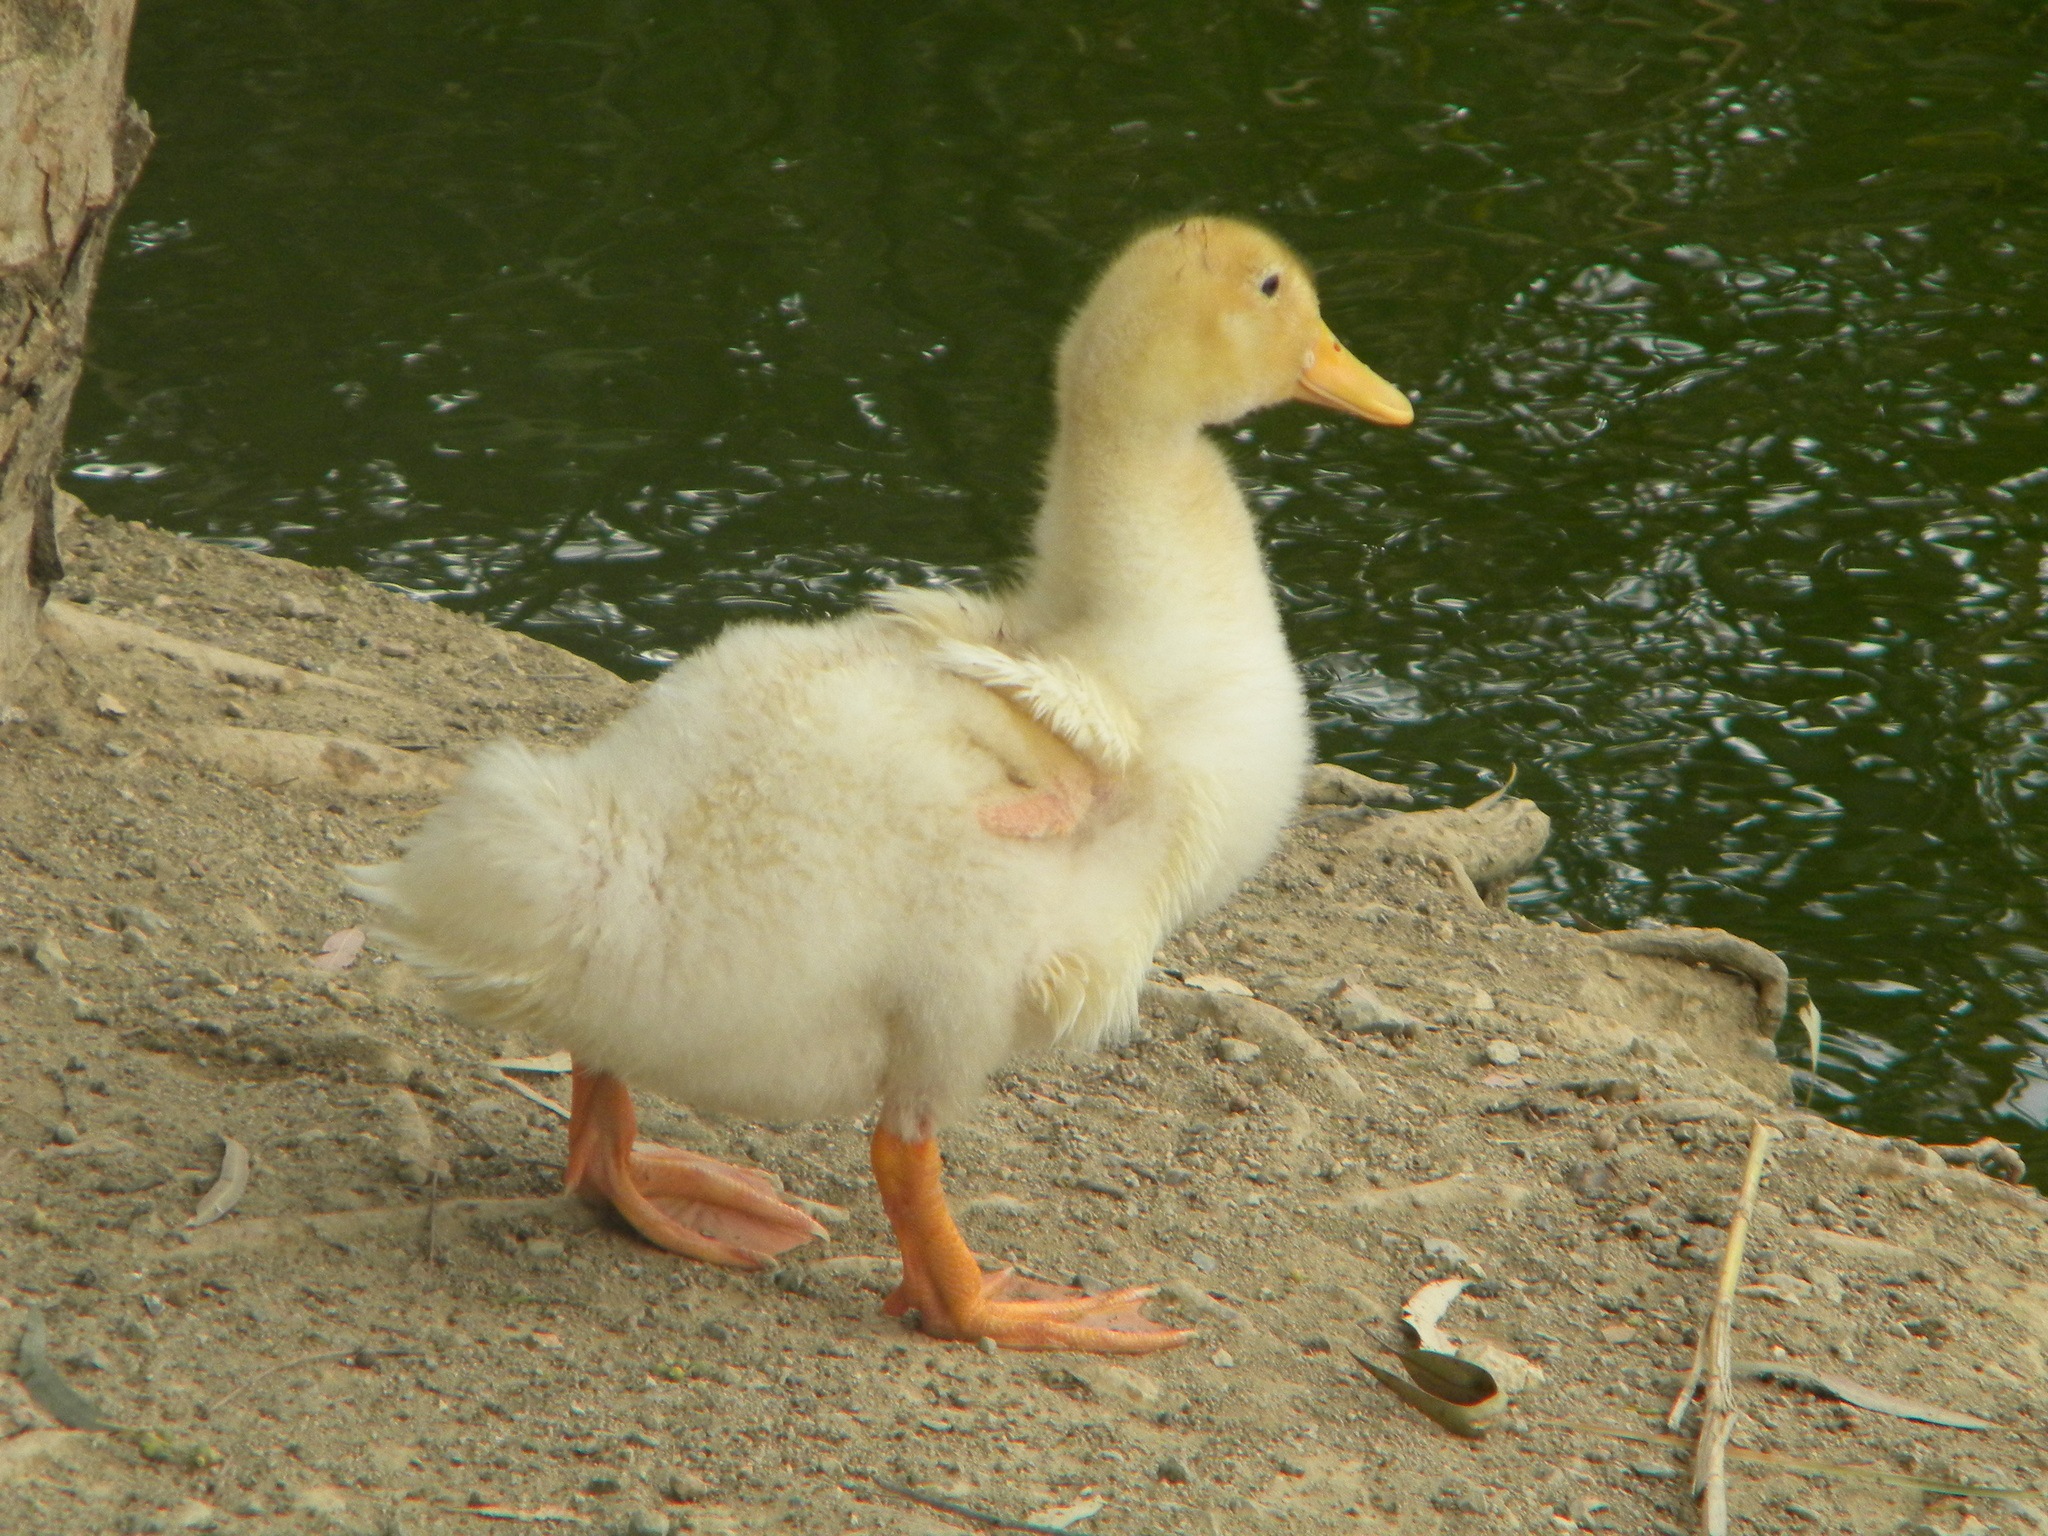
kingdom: Animalia
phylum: Chordata
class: Aves
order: Anseriformes
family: Anatidae
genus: Anas
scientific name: Anas platyrhynchos
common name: Mallard
